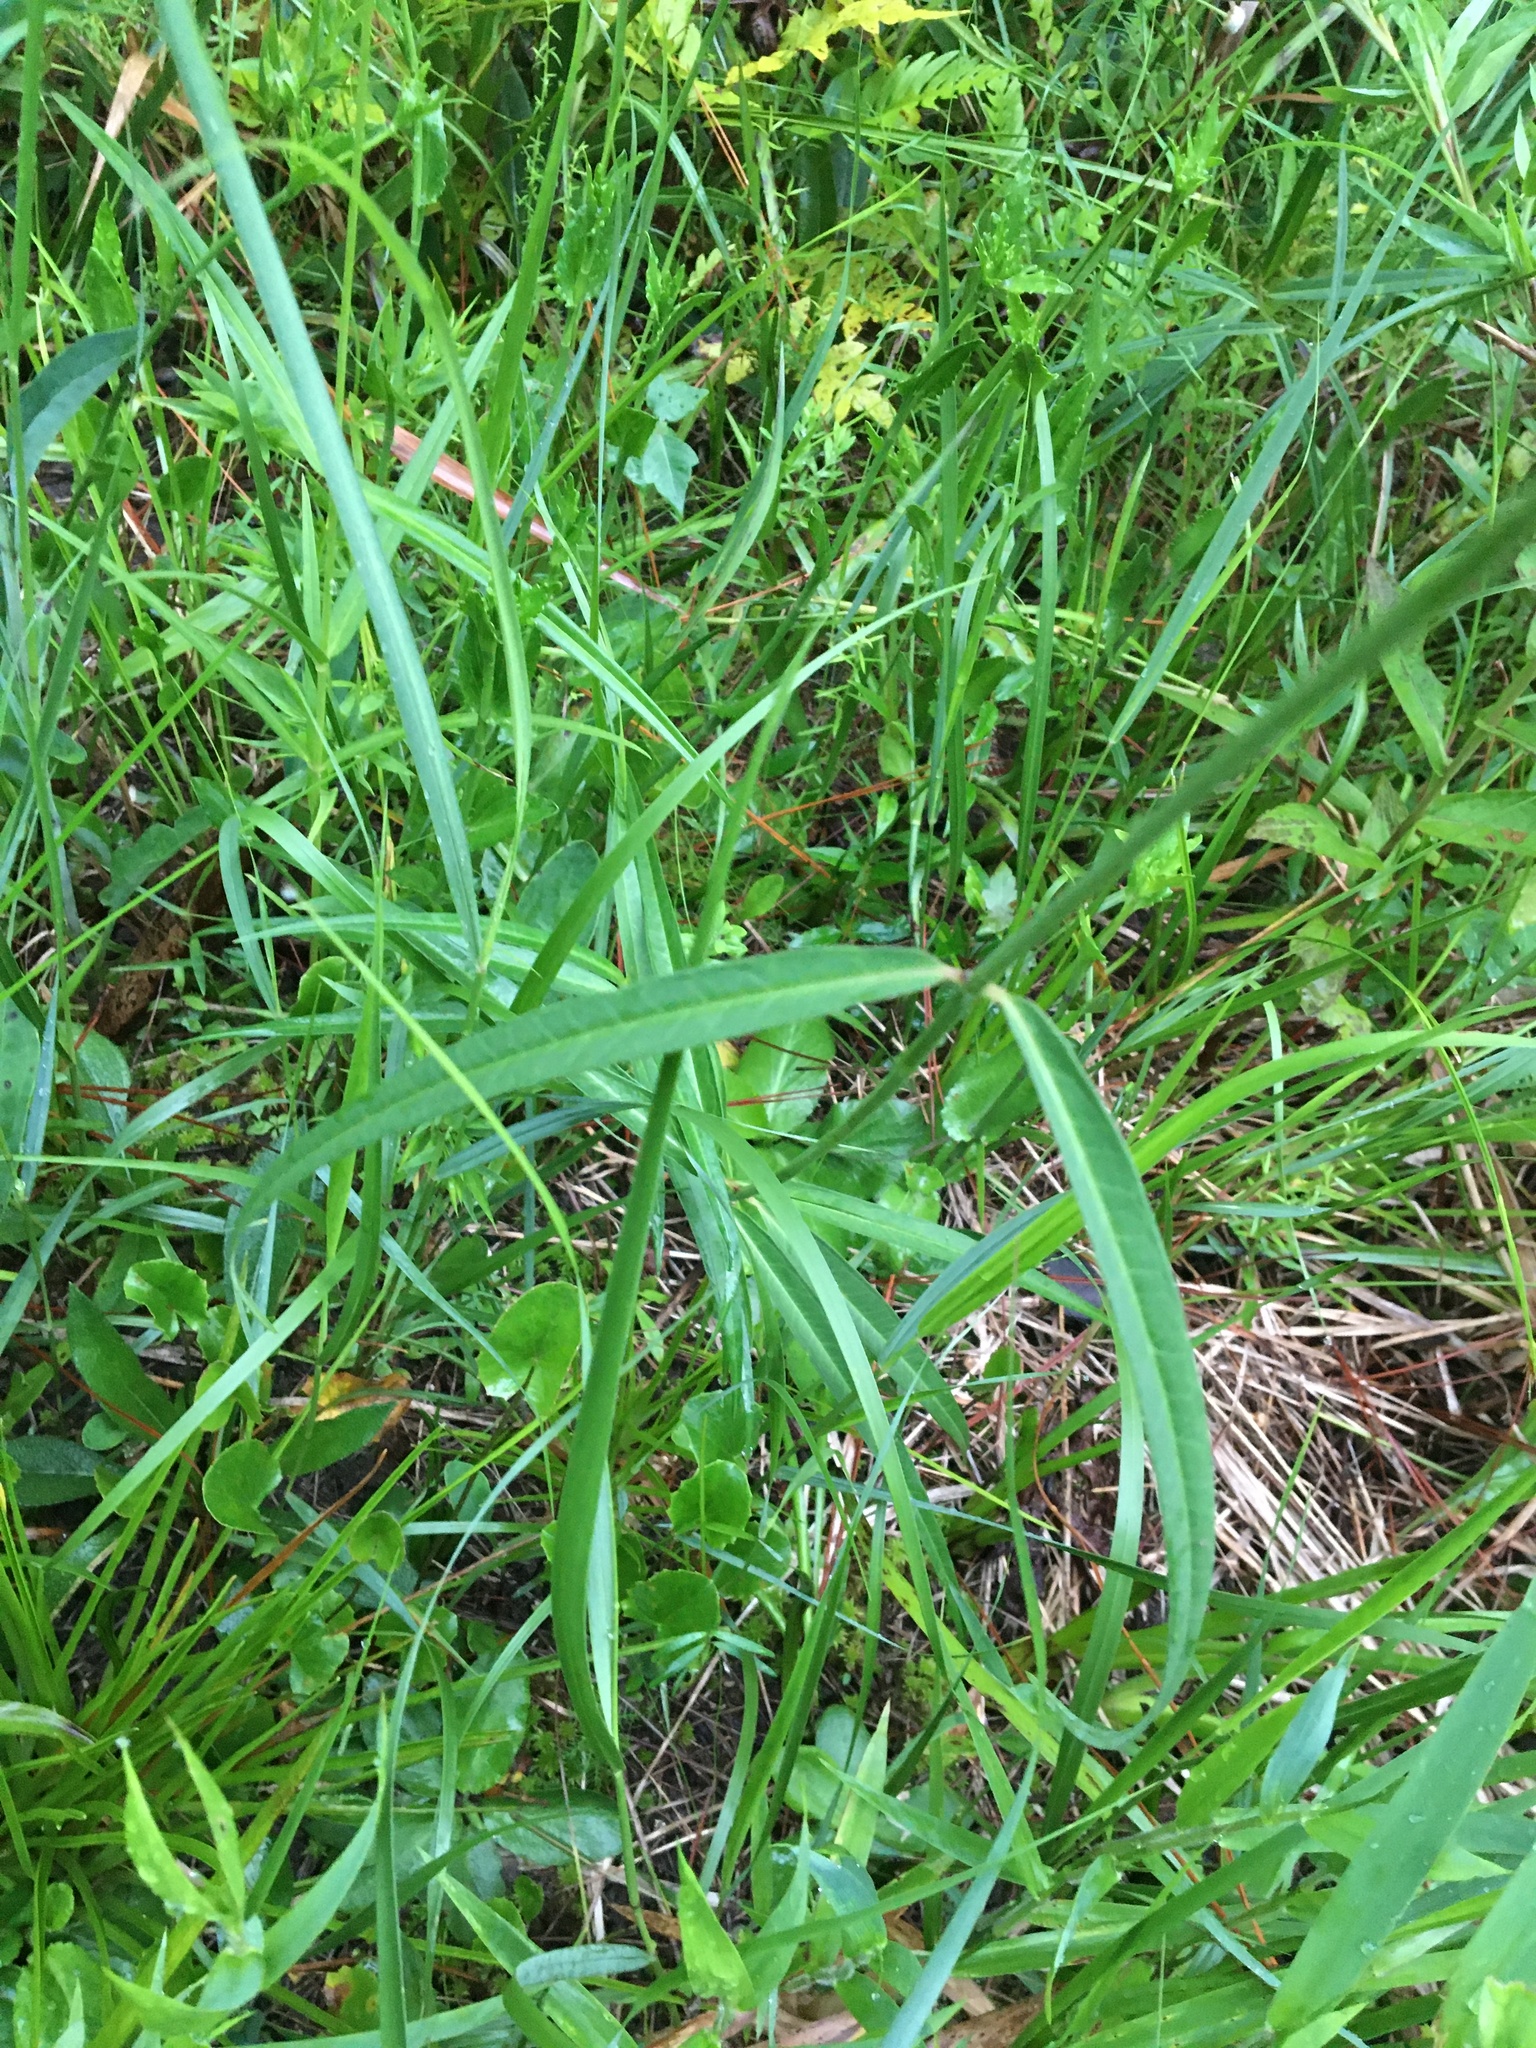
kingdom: Plantae
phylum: Tracheophyta
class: Magnoliopsida
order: Gentianales
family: Apocynaceae
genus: Asclepias
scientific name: Asclepias lanceolata
